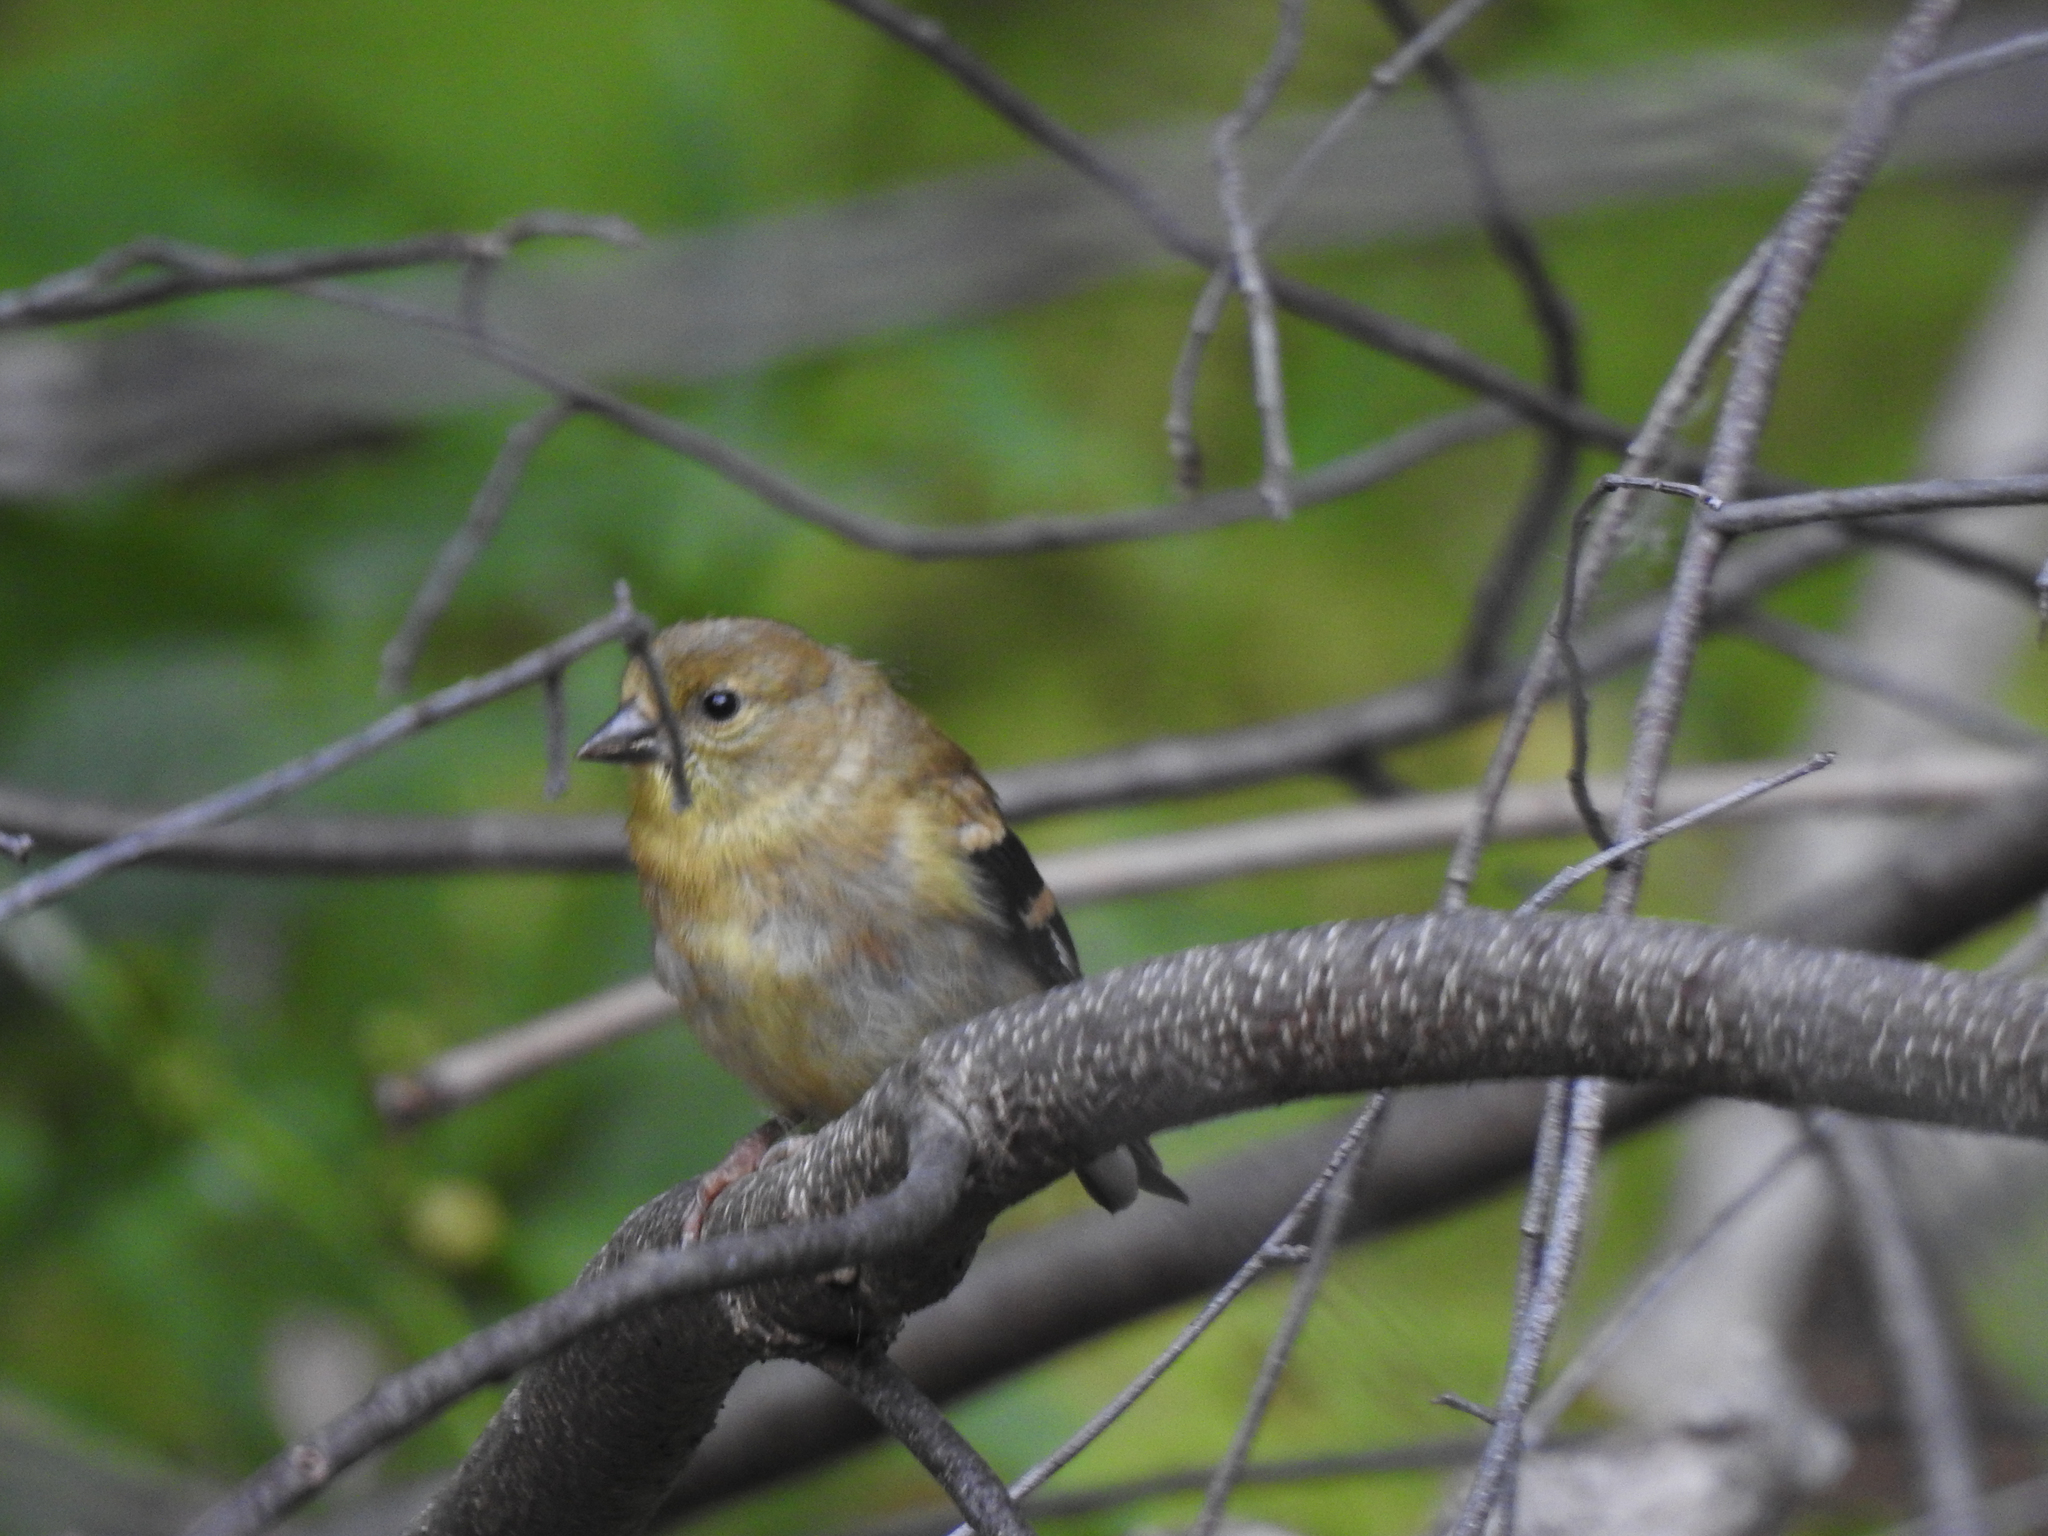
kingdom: Animalia
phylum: Chordata
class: Aves
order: Passeriformes
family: Fringillidae
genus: Spinus
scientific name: Spinus tristis
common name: American goldfinch
